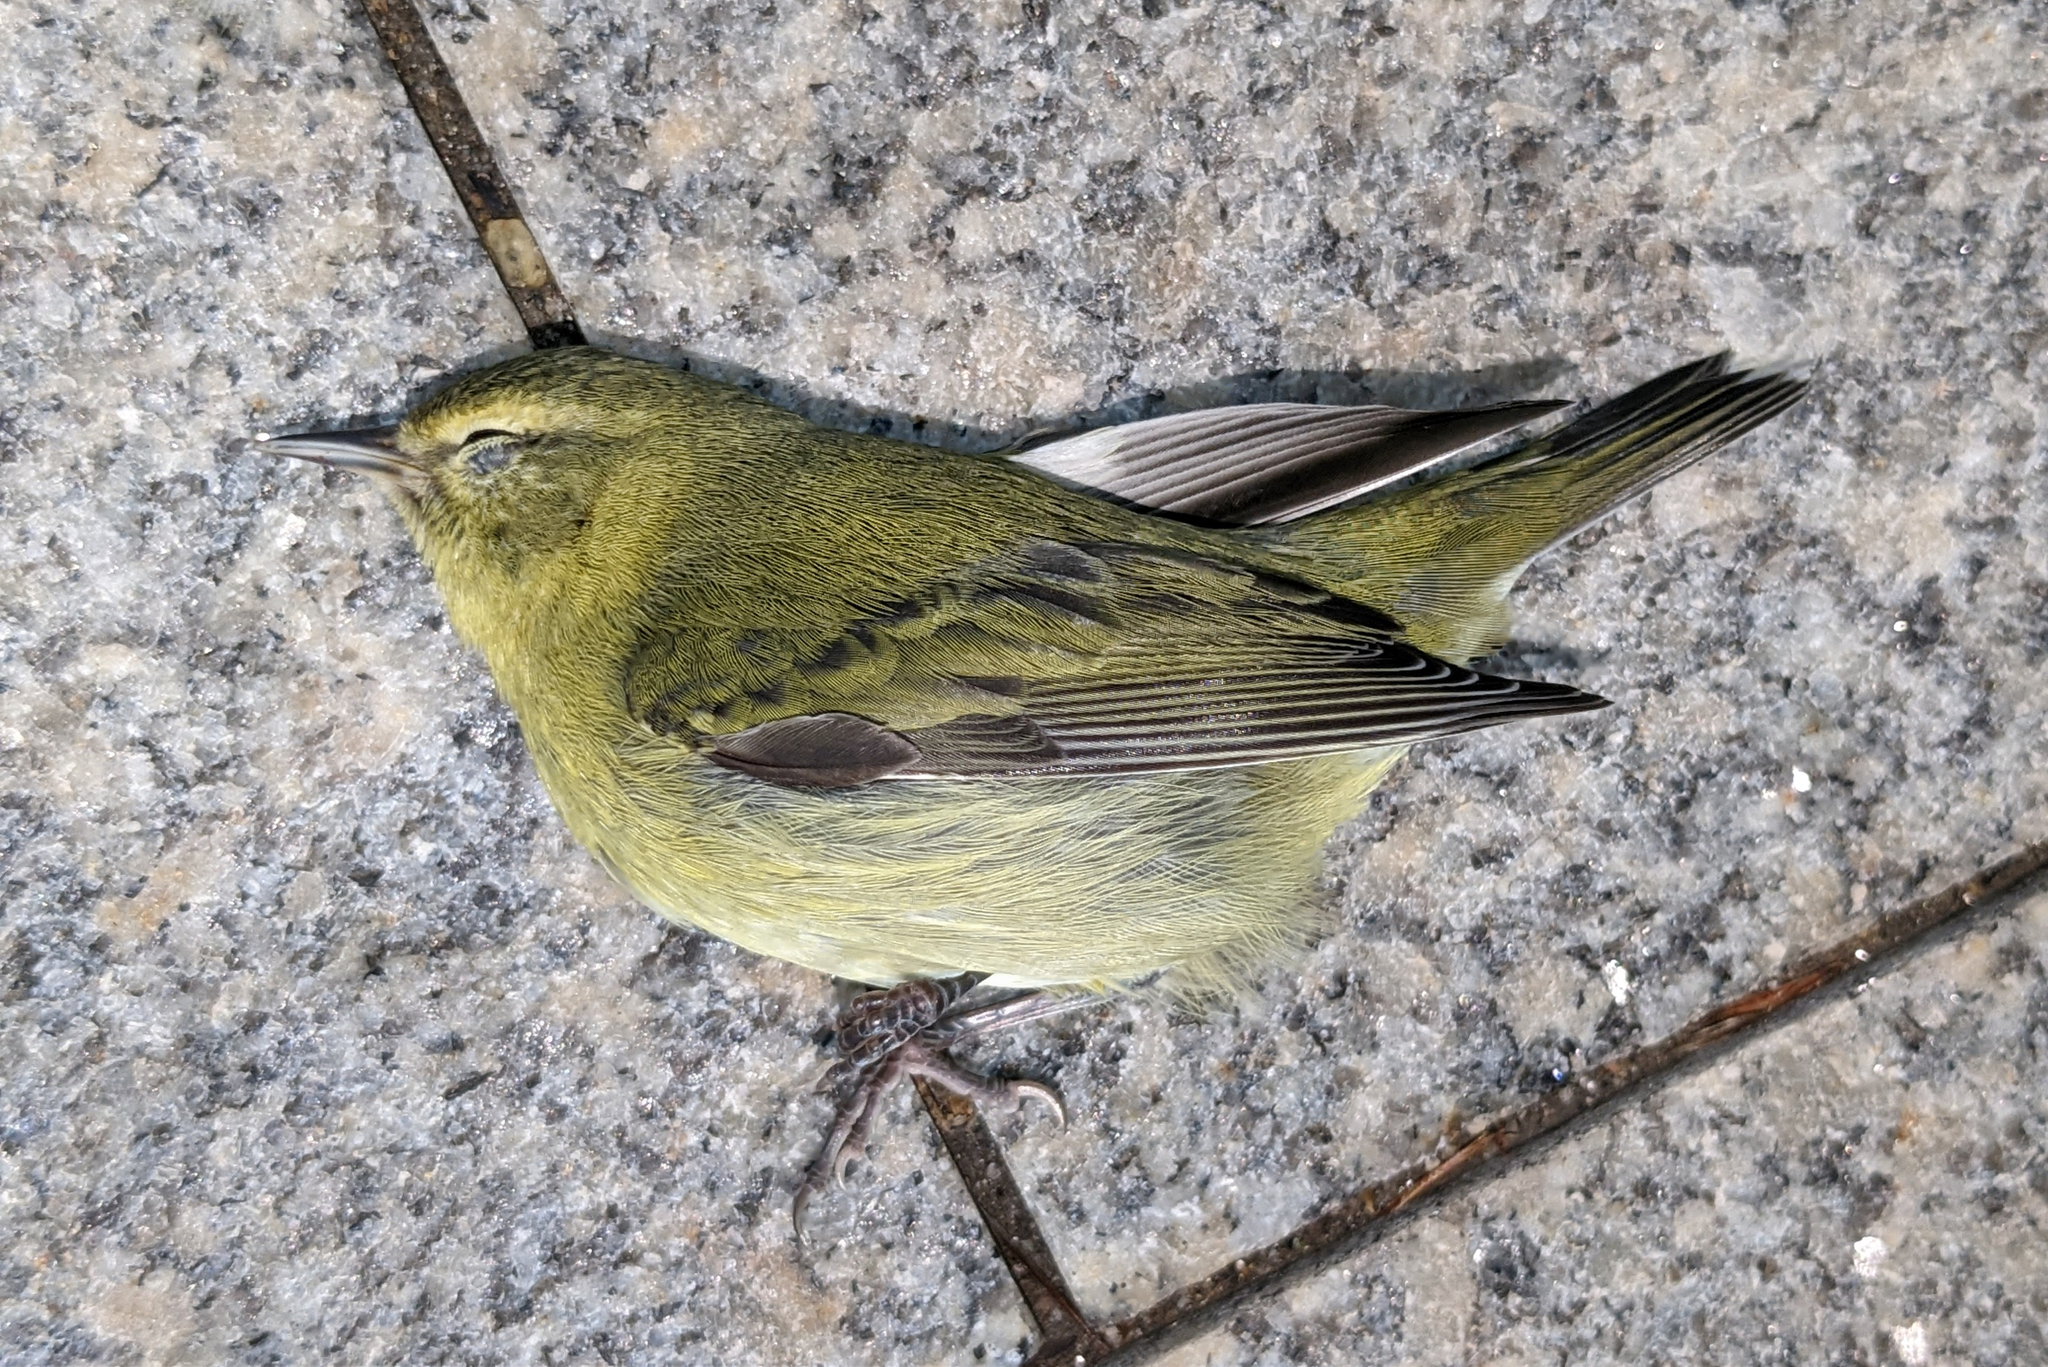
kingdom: Animalia
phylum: Chordata
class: Aves
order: Passeriformes
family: Parulidae
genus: Leiothlypis
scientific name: Leiothlypis peregrina
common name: Tennessee warbler
